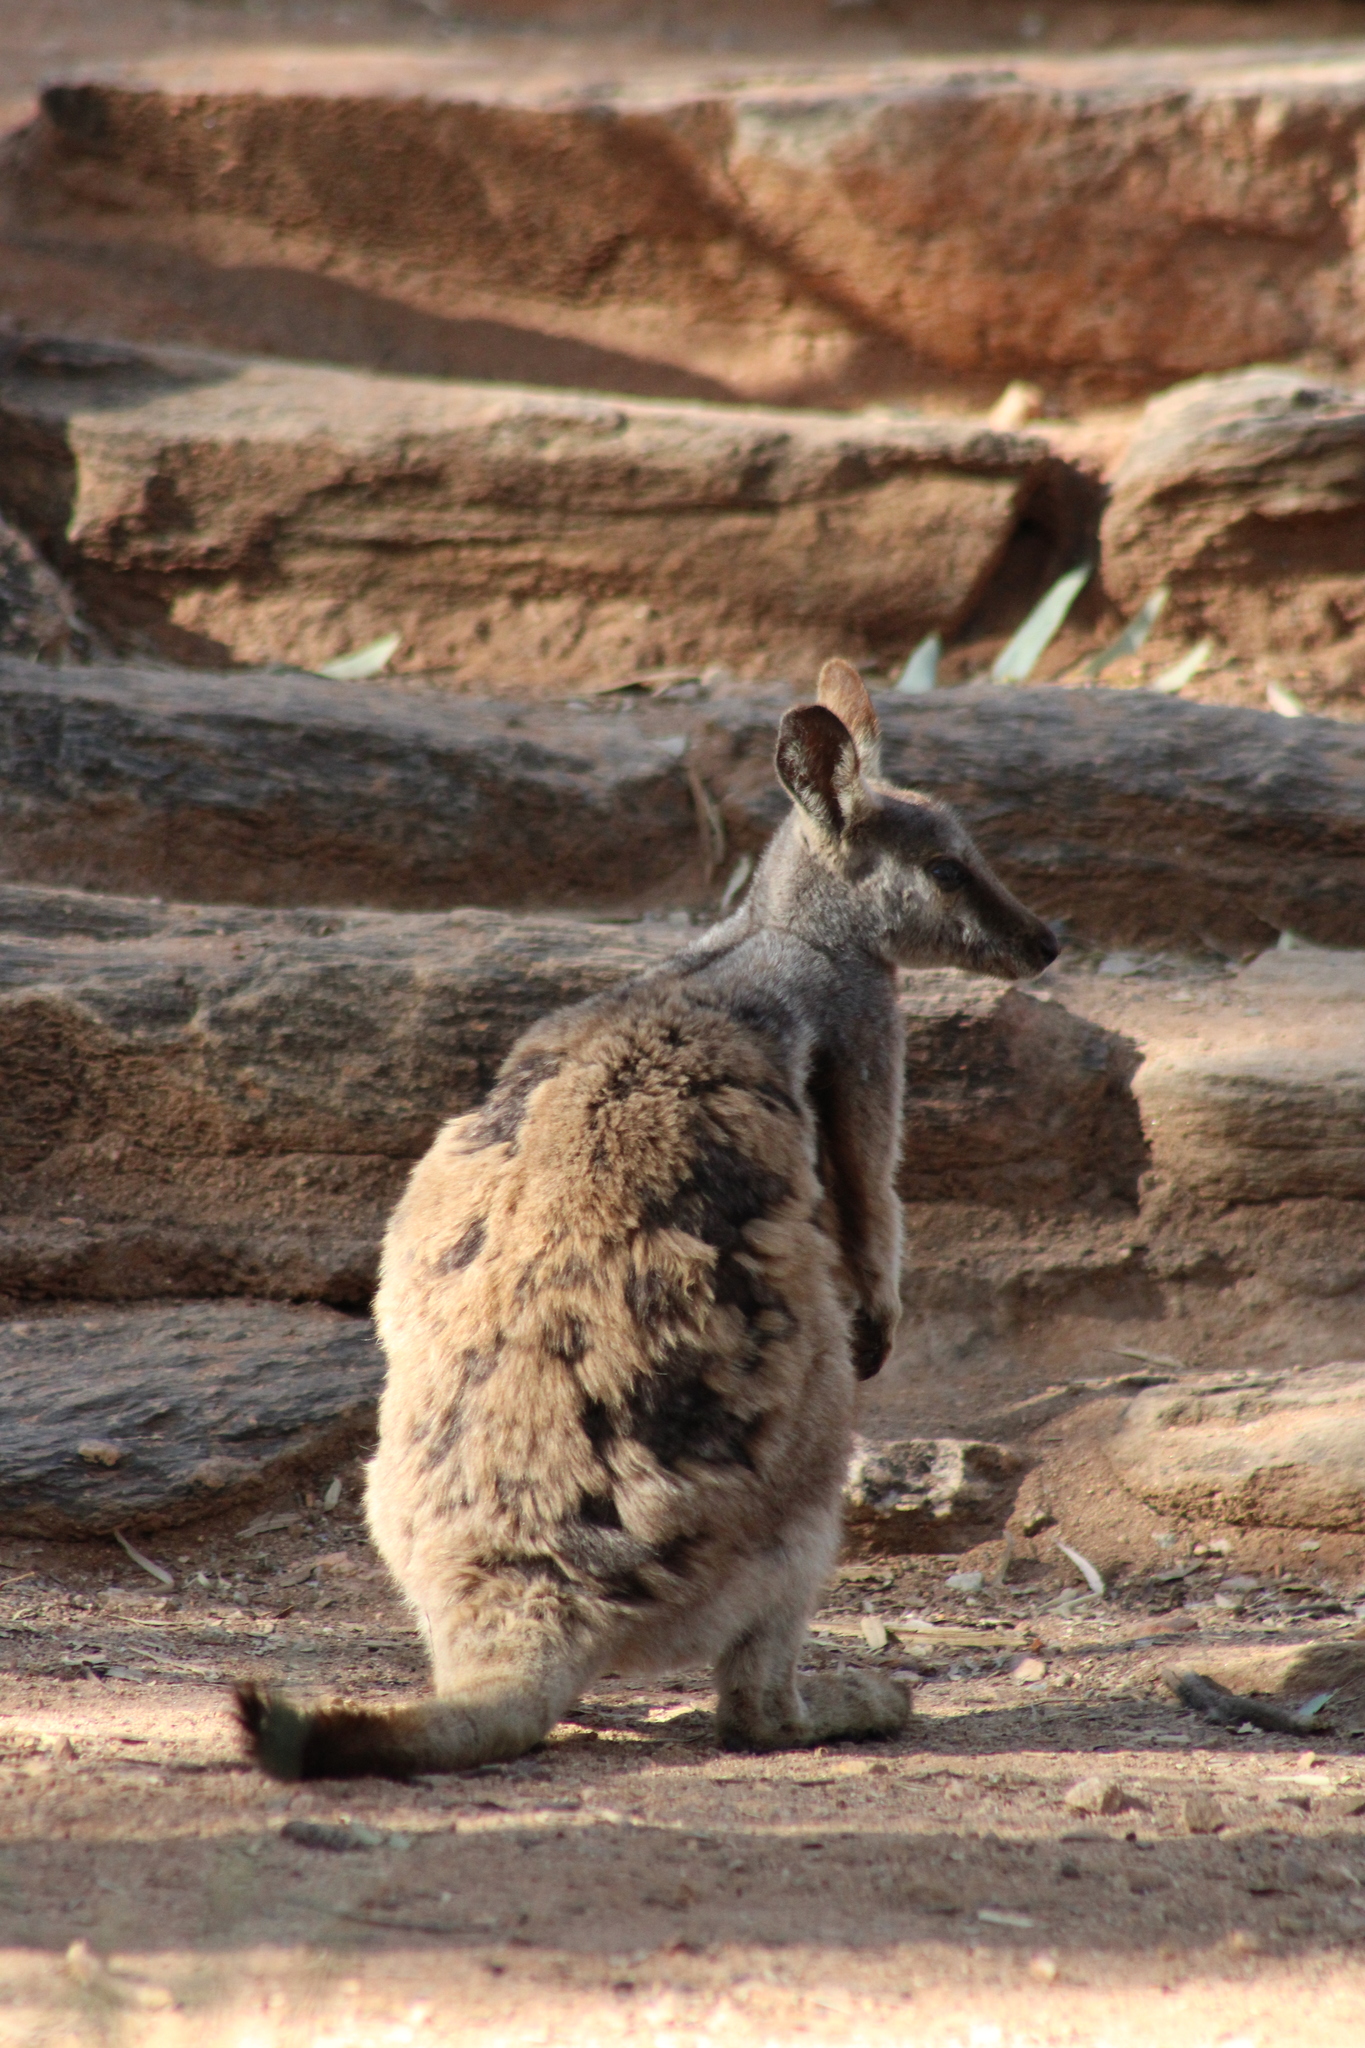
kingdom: Animalia
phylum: Chordata
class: Mammalia
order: Diprotodontia
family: Macropodidae
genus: Petrogale
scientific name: Petrogale lateralis
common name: Black-flanked rock-wallaby
